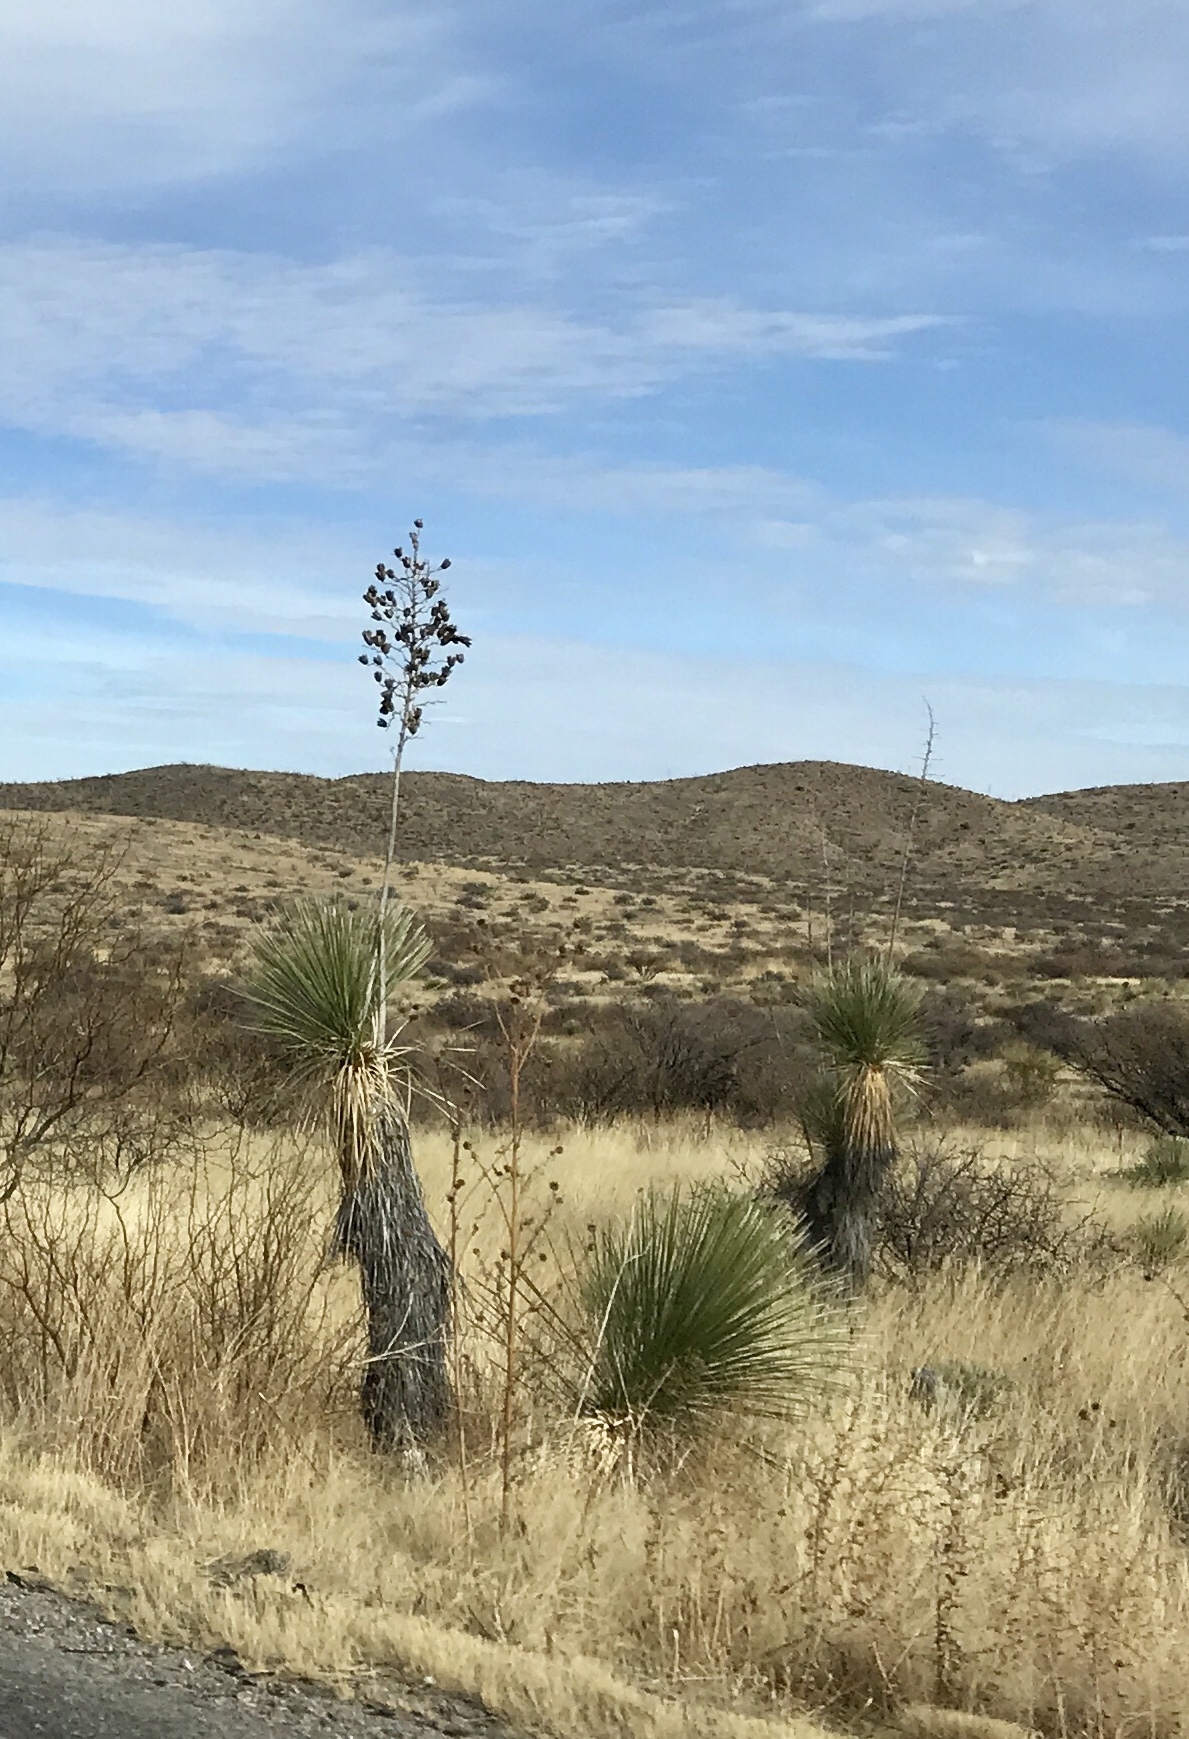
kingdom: Plantae
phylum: Tracheophyta
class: Liliopsida
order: Asparagales
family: Asparagaceae
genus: Yucca
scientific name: Yucca elata
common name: Palmella
